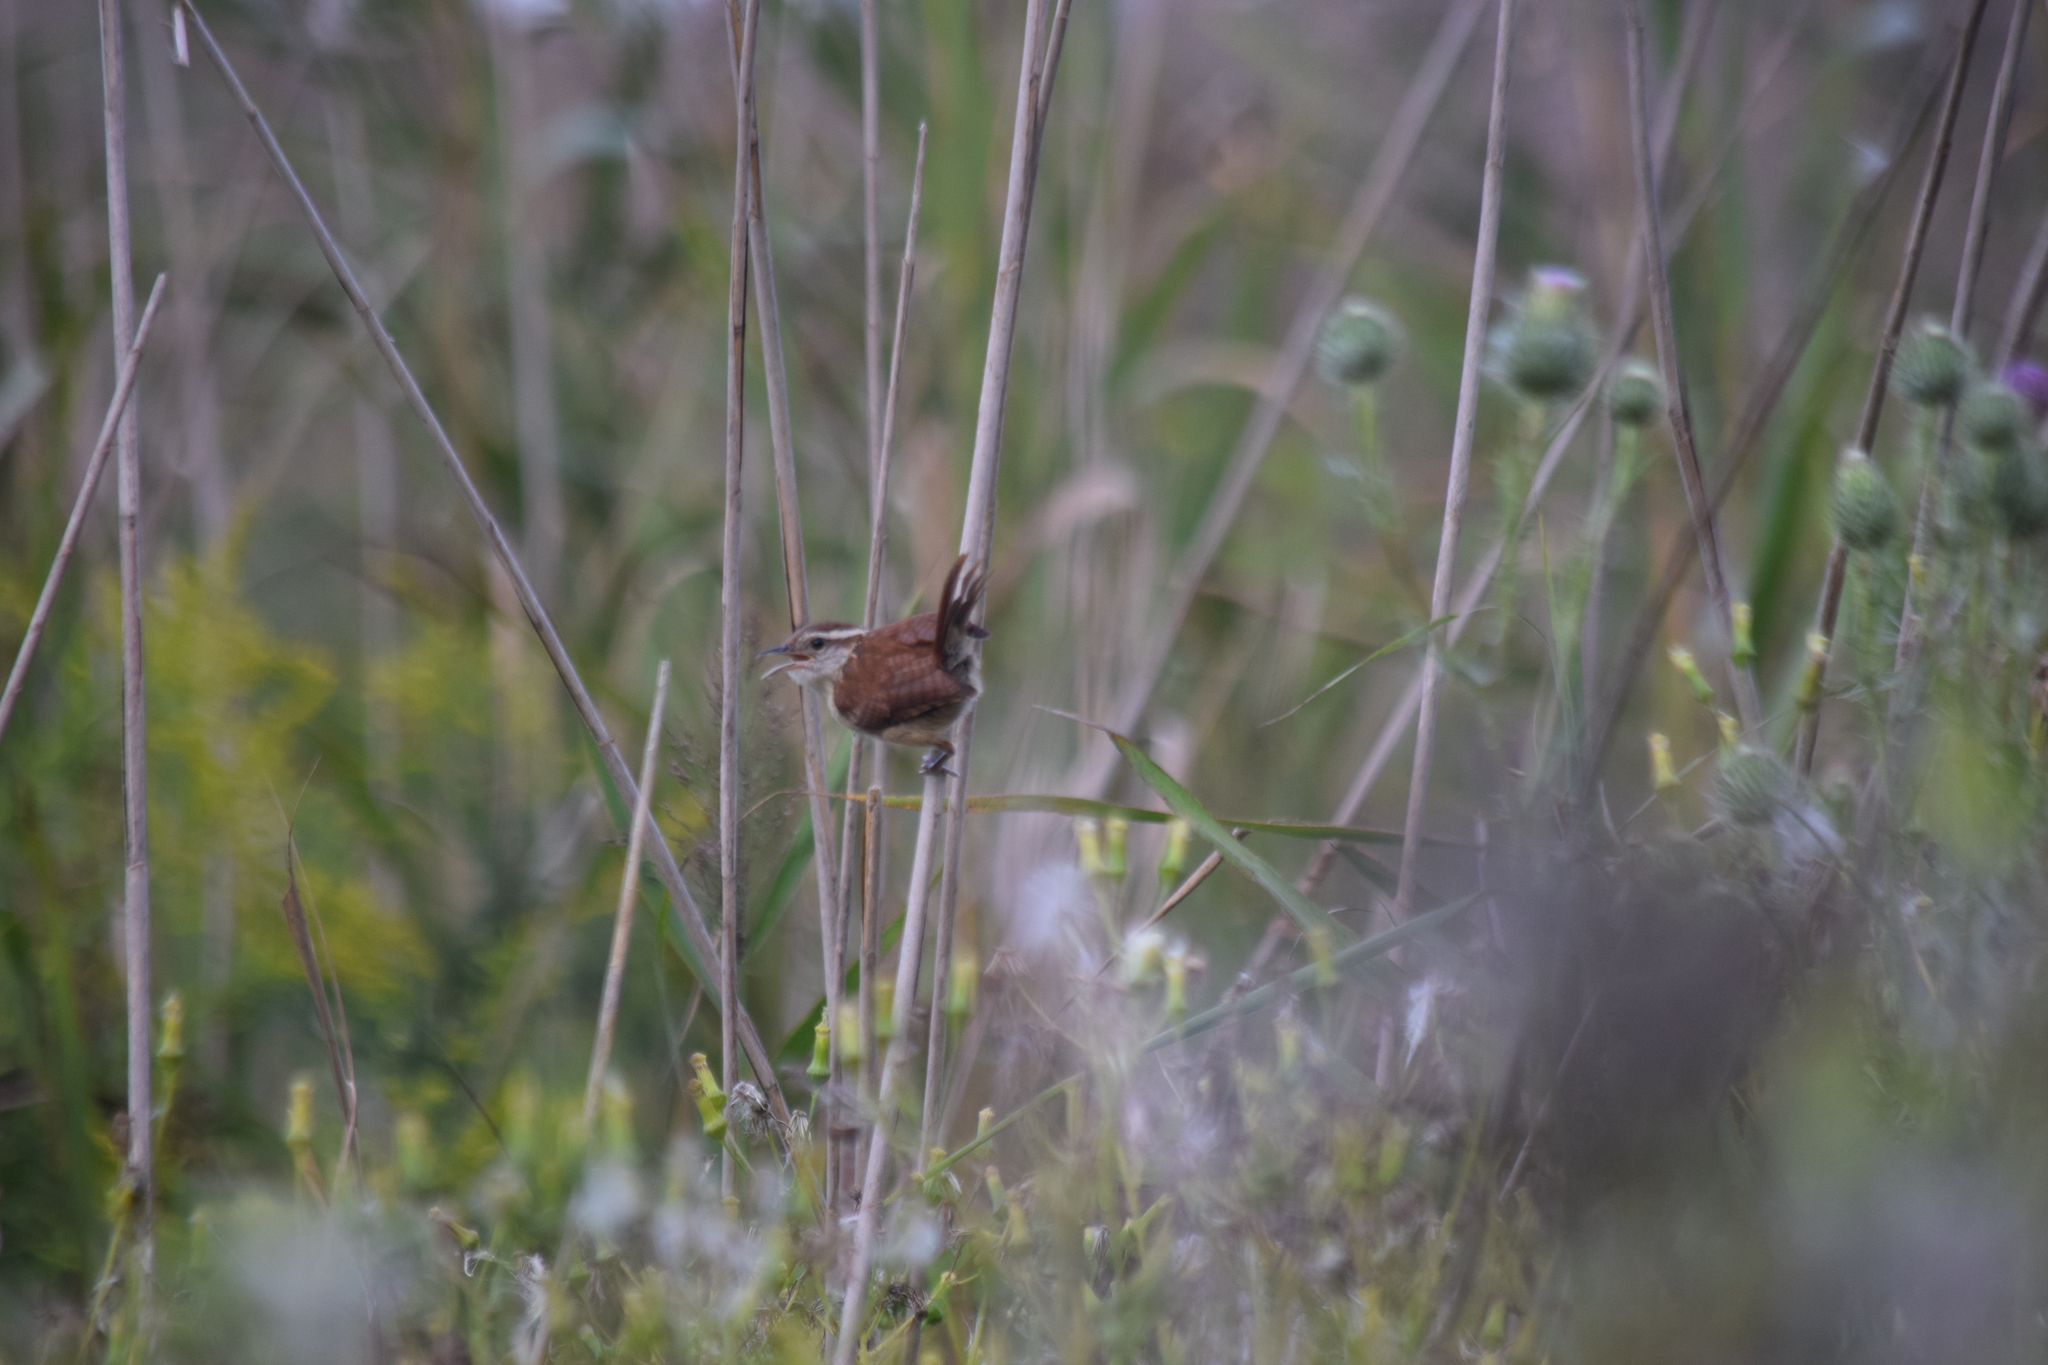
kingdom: Animalia
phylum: Chordata
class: Aves
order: Passeriformes
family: Troglodytidae
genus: Thryothorus
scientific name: Thryothorus ludovicianus
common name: Carolina wren
